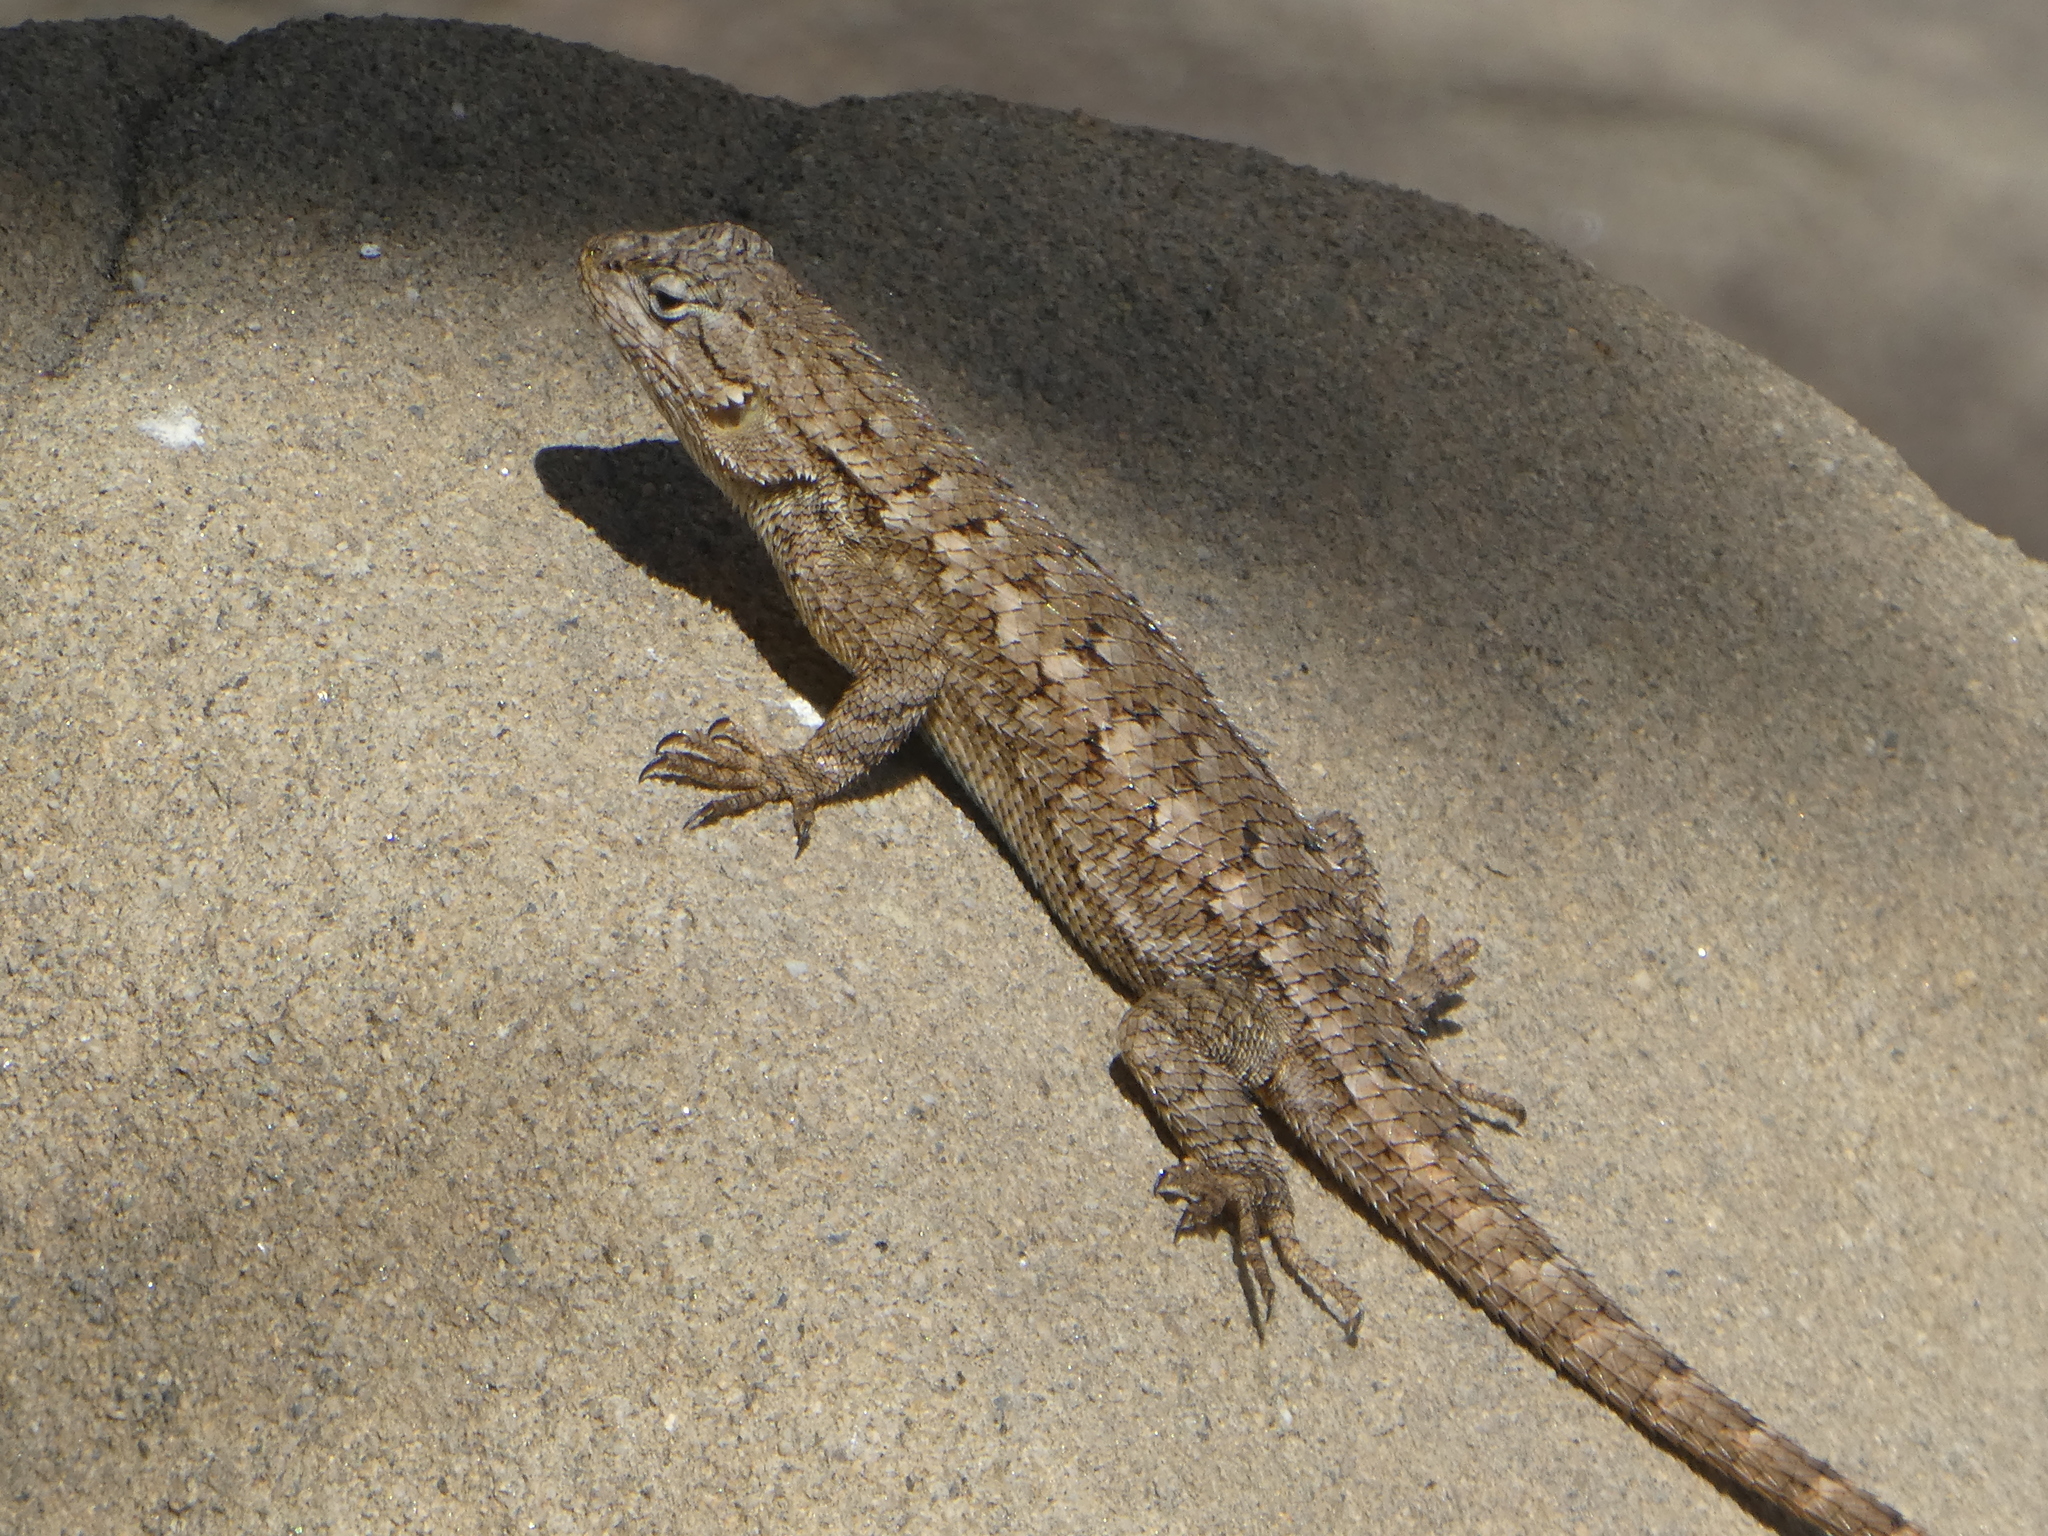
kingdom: Animalia
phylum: Chordata
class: Squamata
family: Phrynosomatidae
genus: Sceloporus
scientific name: Sceloporus occidentalis
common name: Western fence lizard
